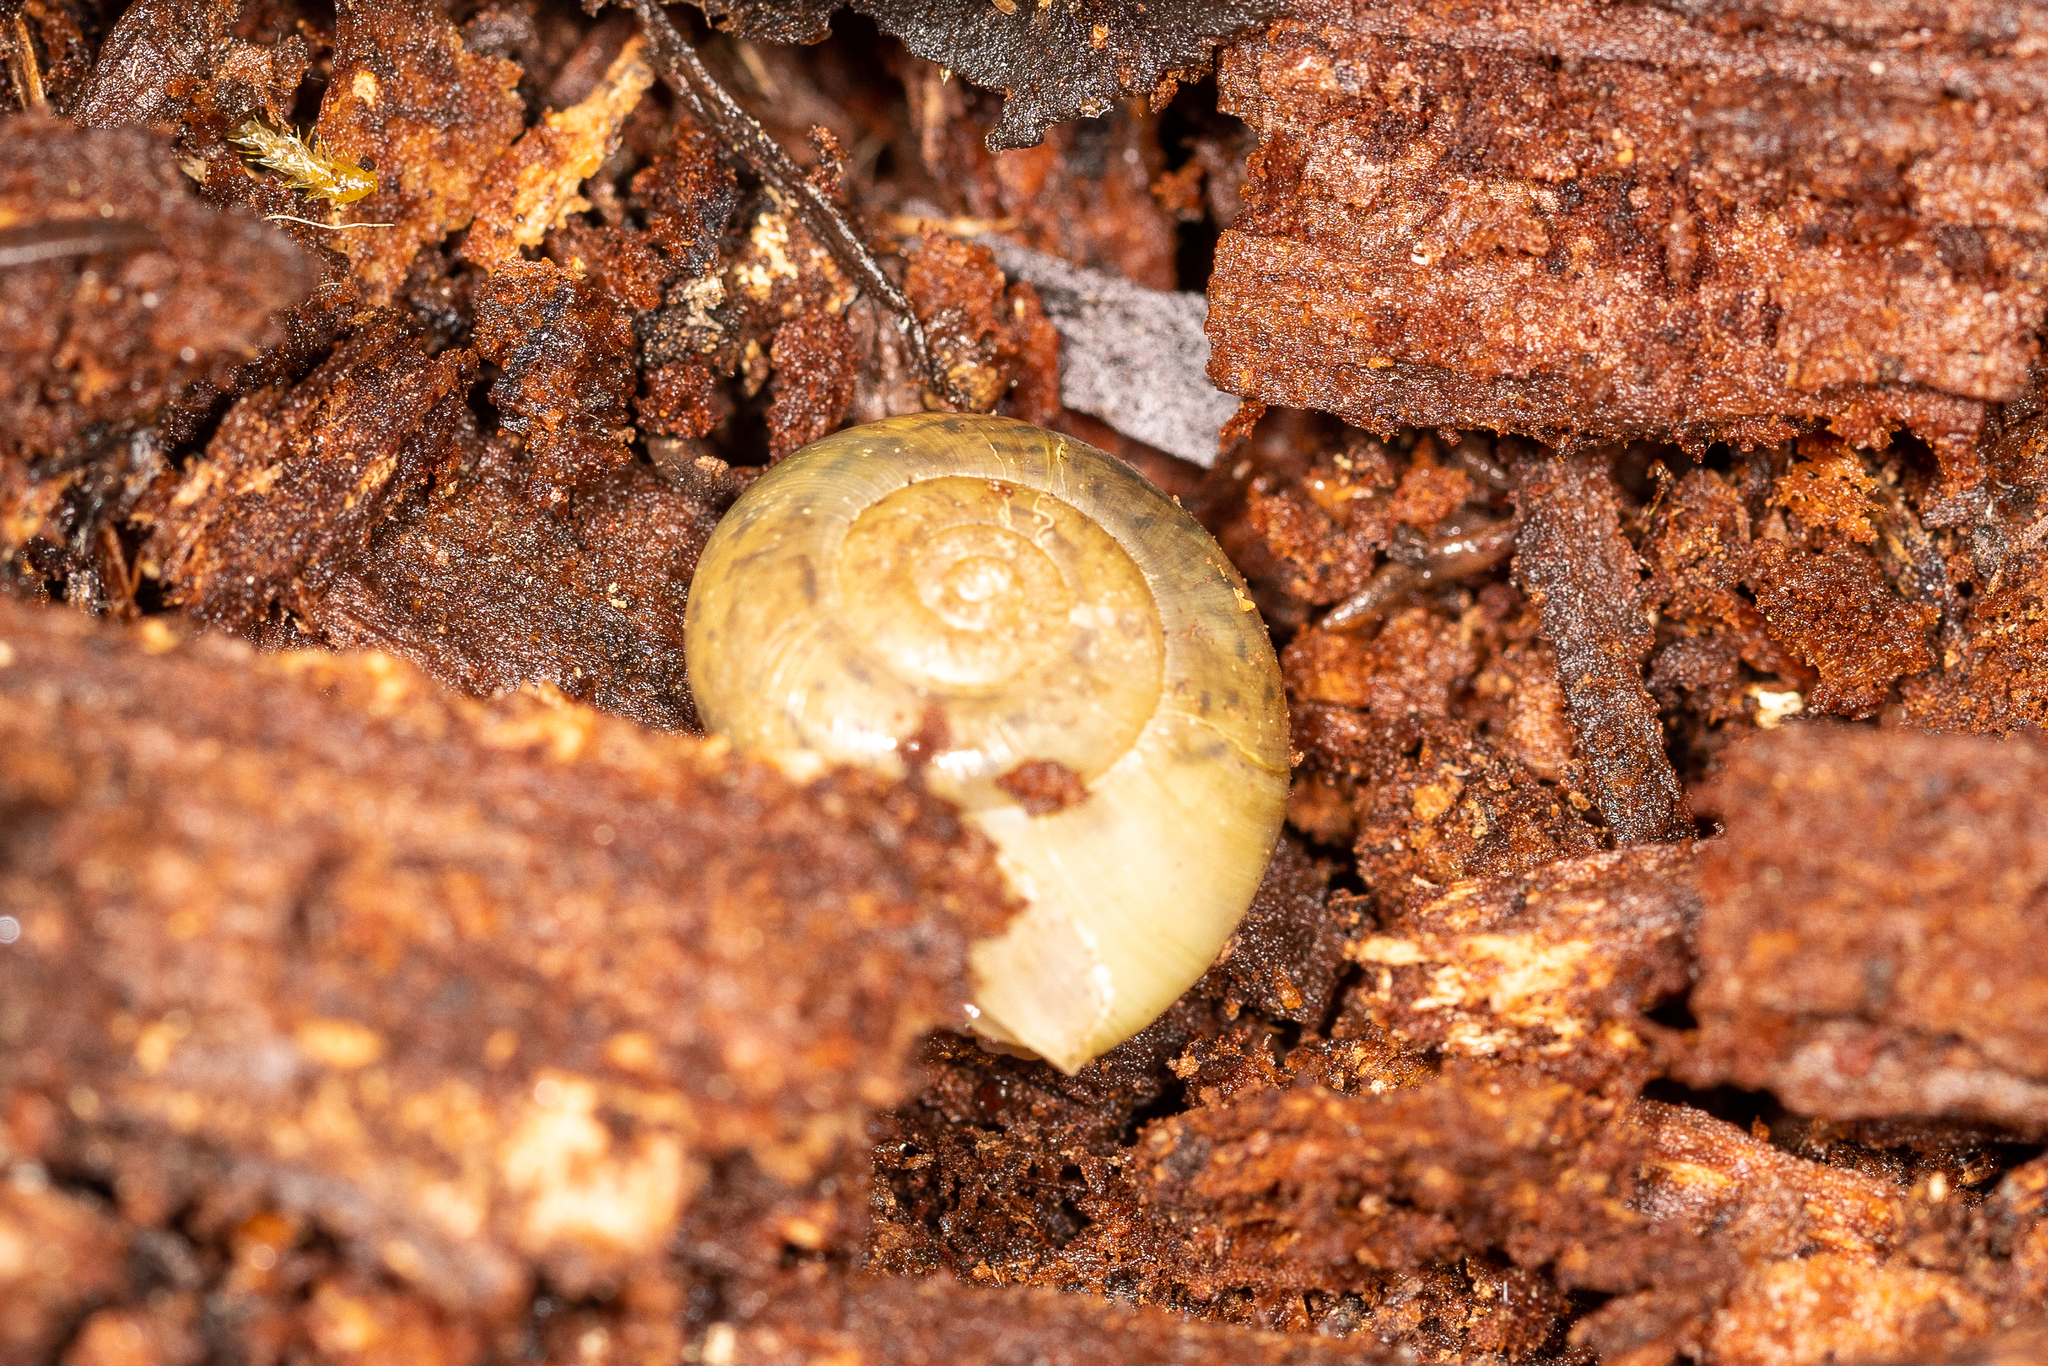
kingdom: Animalia
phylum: Mollusca
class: Gastropoda
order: Stylommatophora
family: Haplotrematidae
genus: Haplotrema
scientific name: Haplotrema minimum
